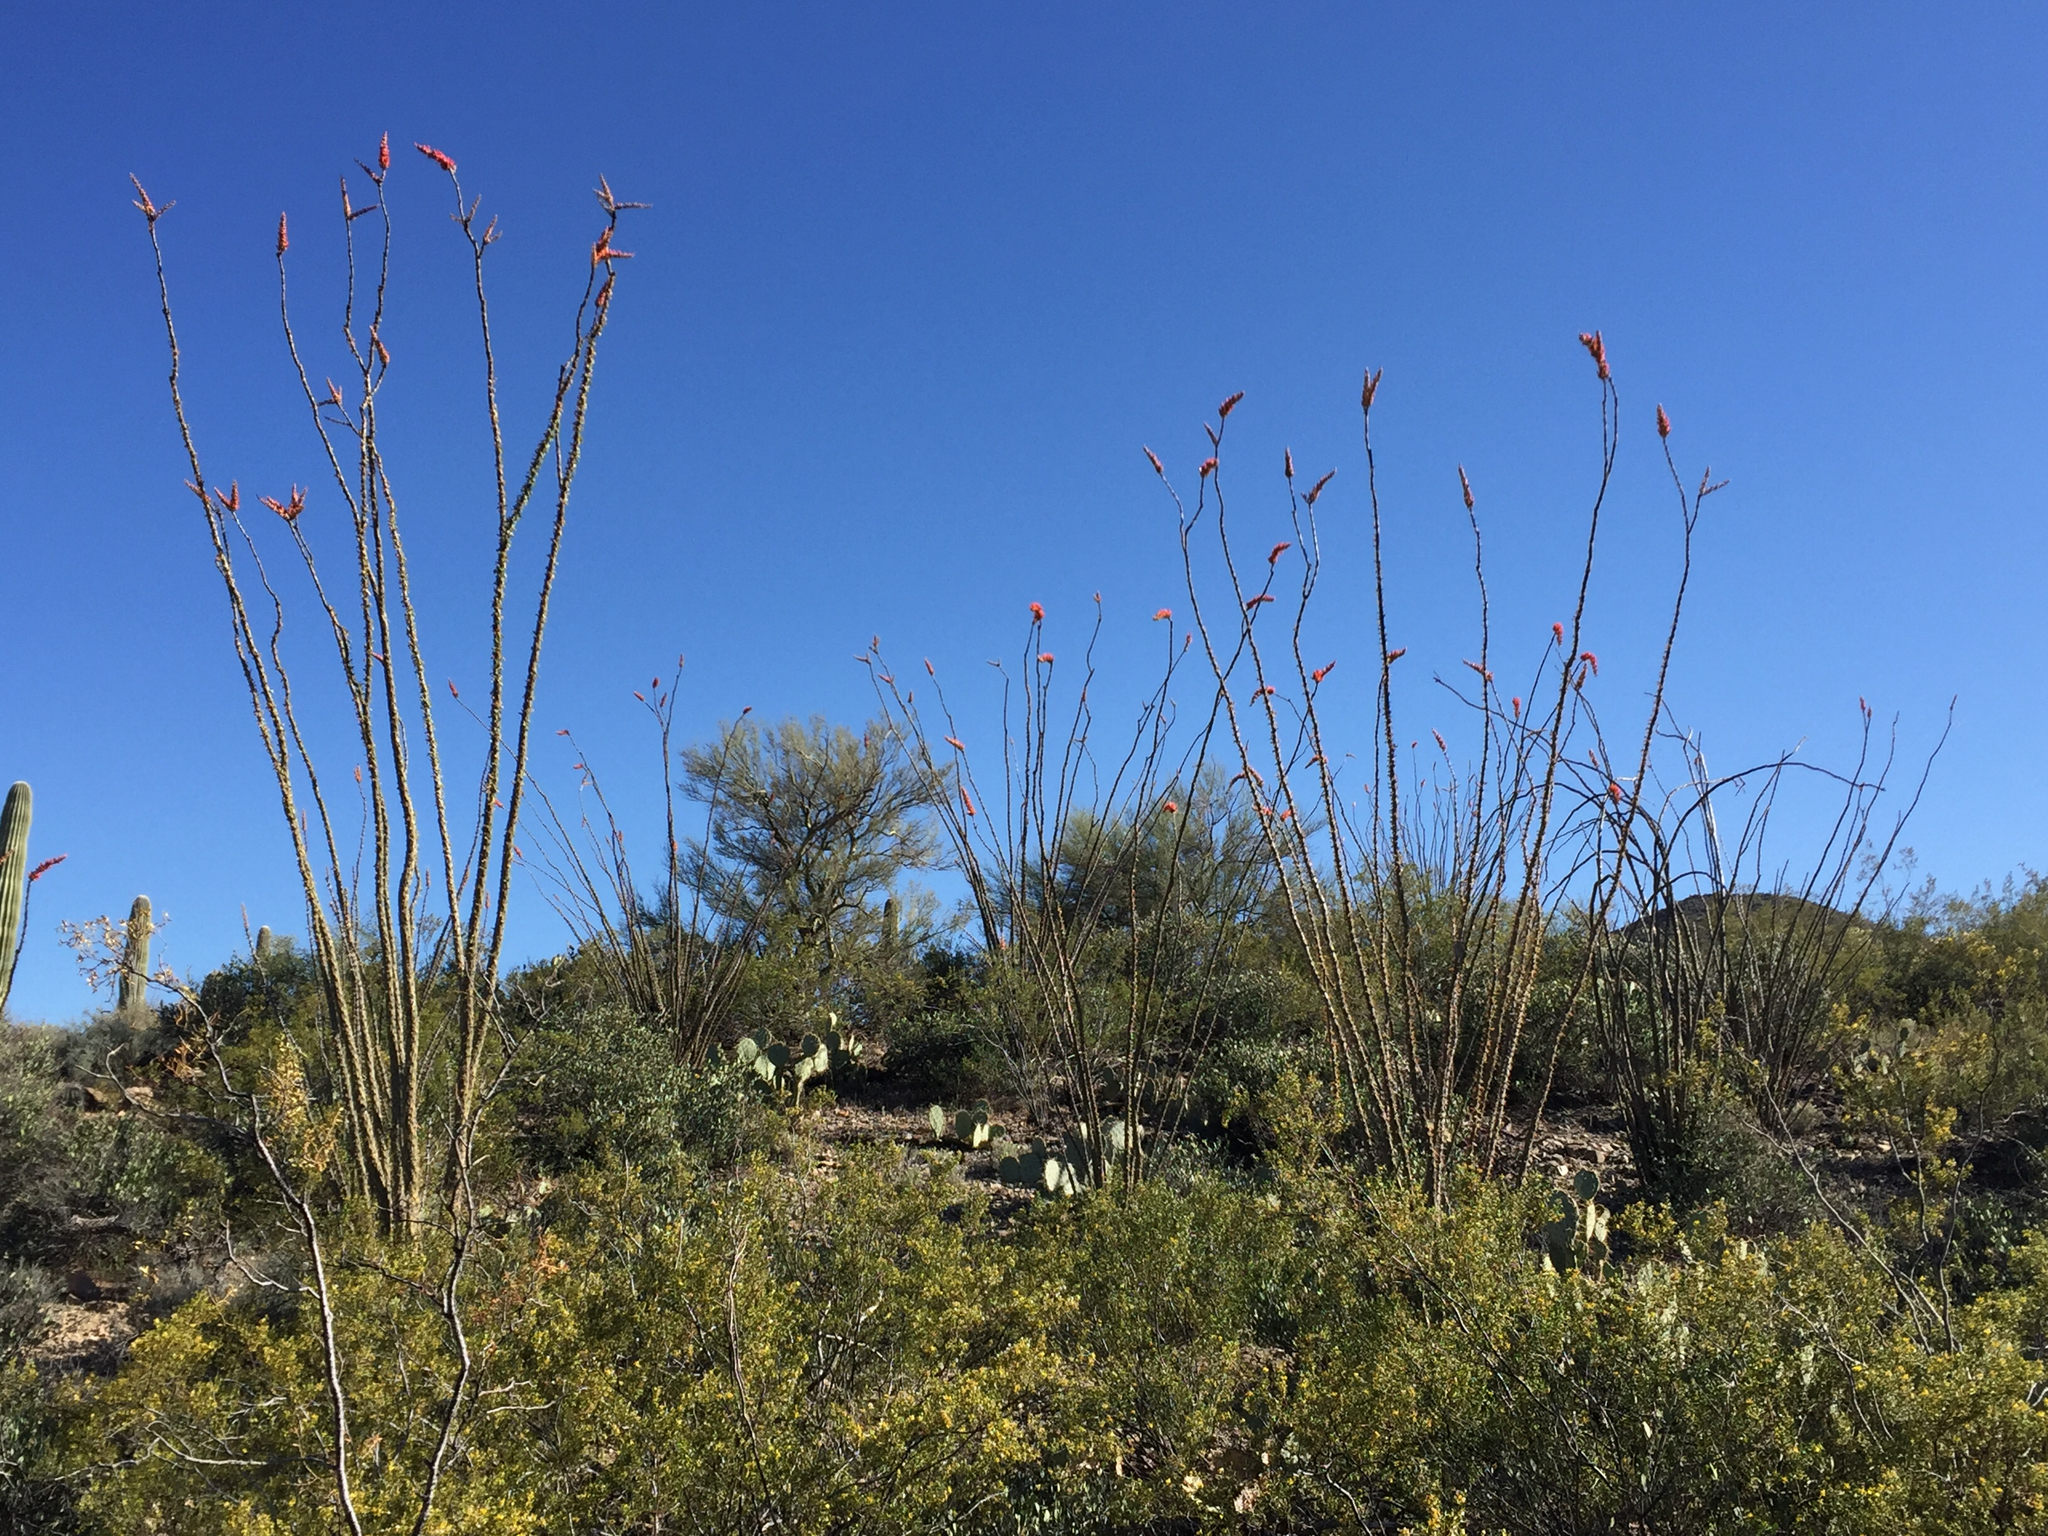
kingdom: Plantae
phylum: Tracheophyta
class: Magnoliopsida
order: Ericales
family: Fouquieriaceae
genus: Fouquieria
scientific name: Fouquieria splendens
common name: Vine-cactus
